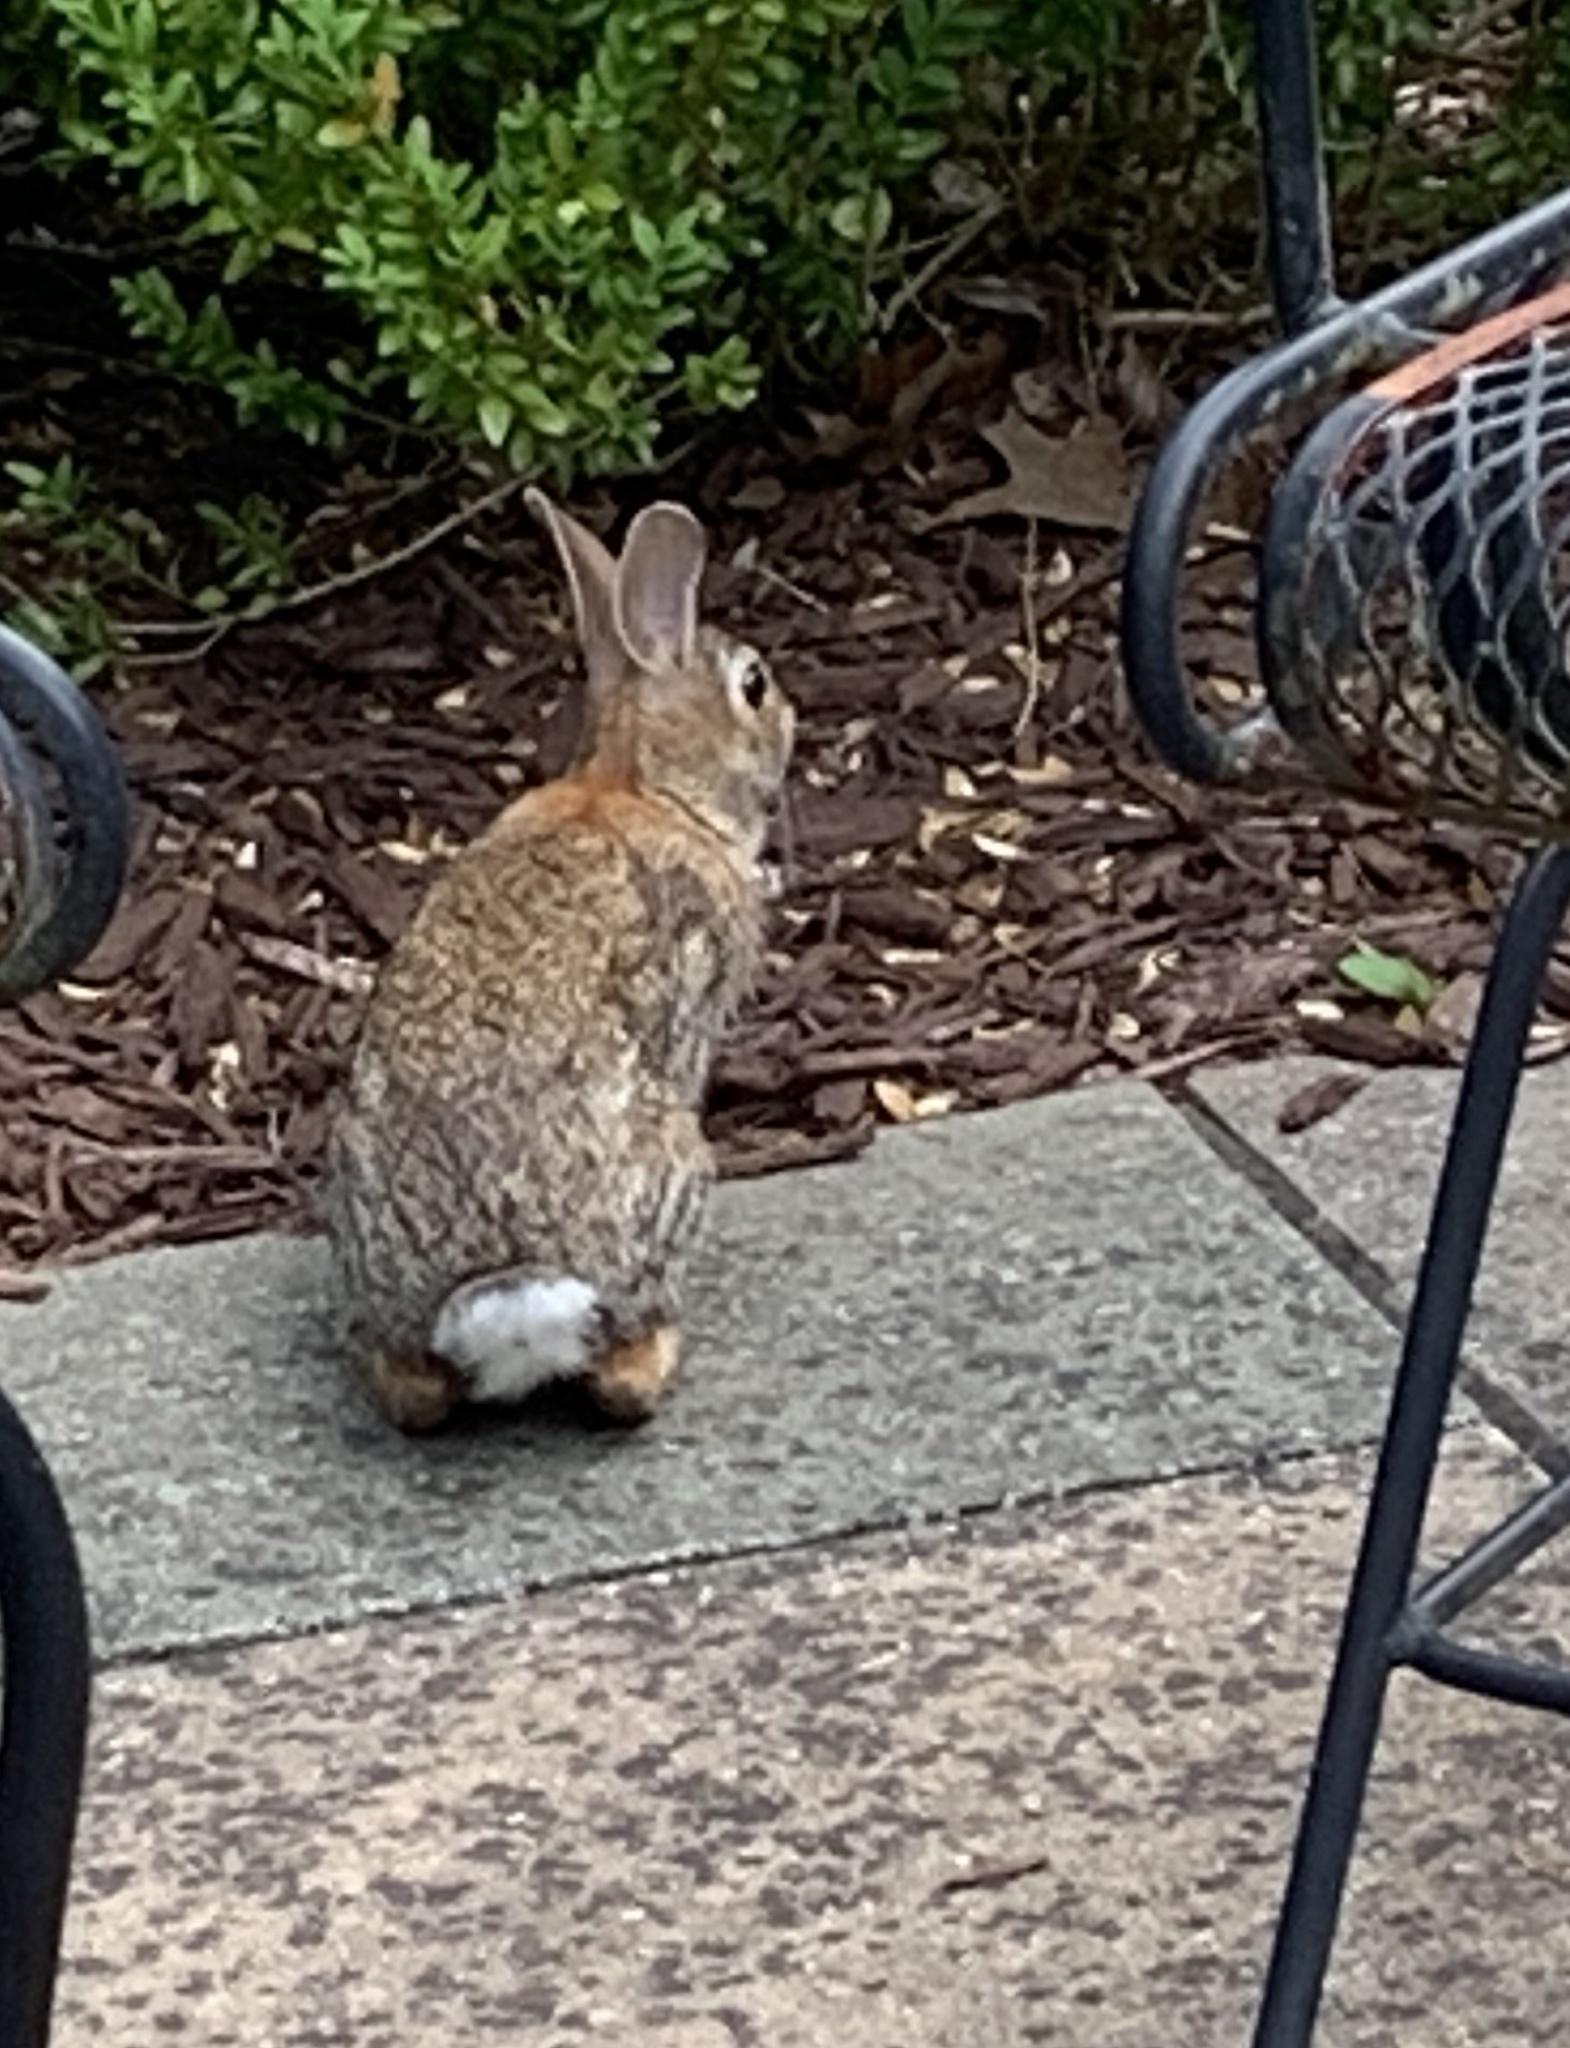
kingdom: Animalia
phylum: Chordata
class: Mammalia
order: Lagomorpha
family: Leporidae
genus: Sylvilagus
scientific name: Sylvilagus floridanus
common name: Eastern cottontail
